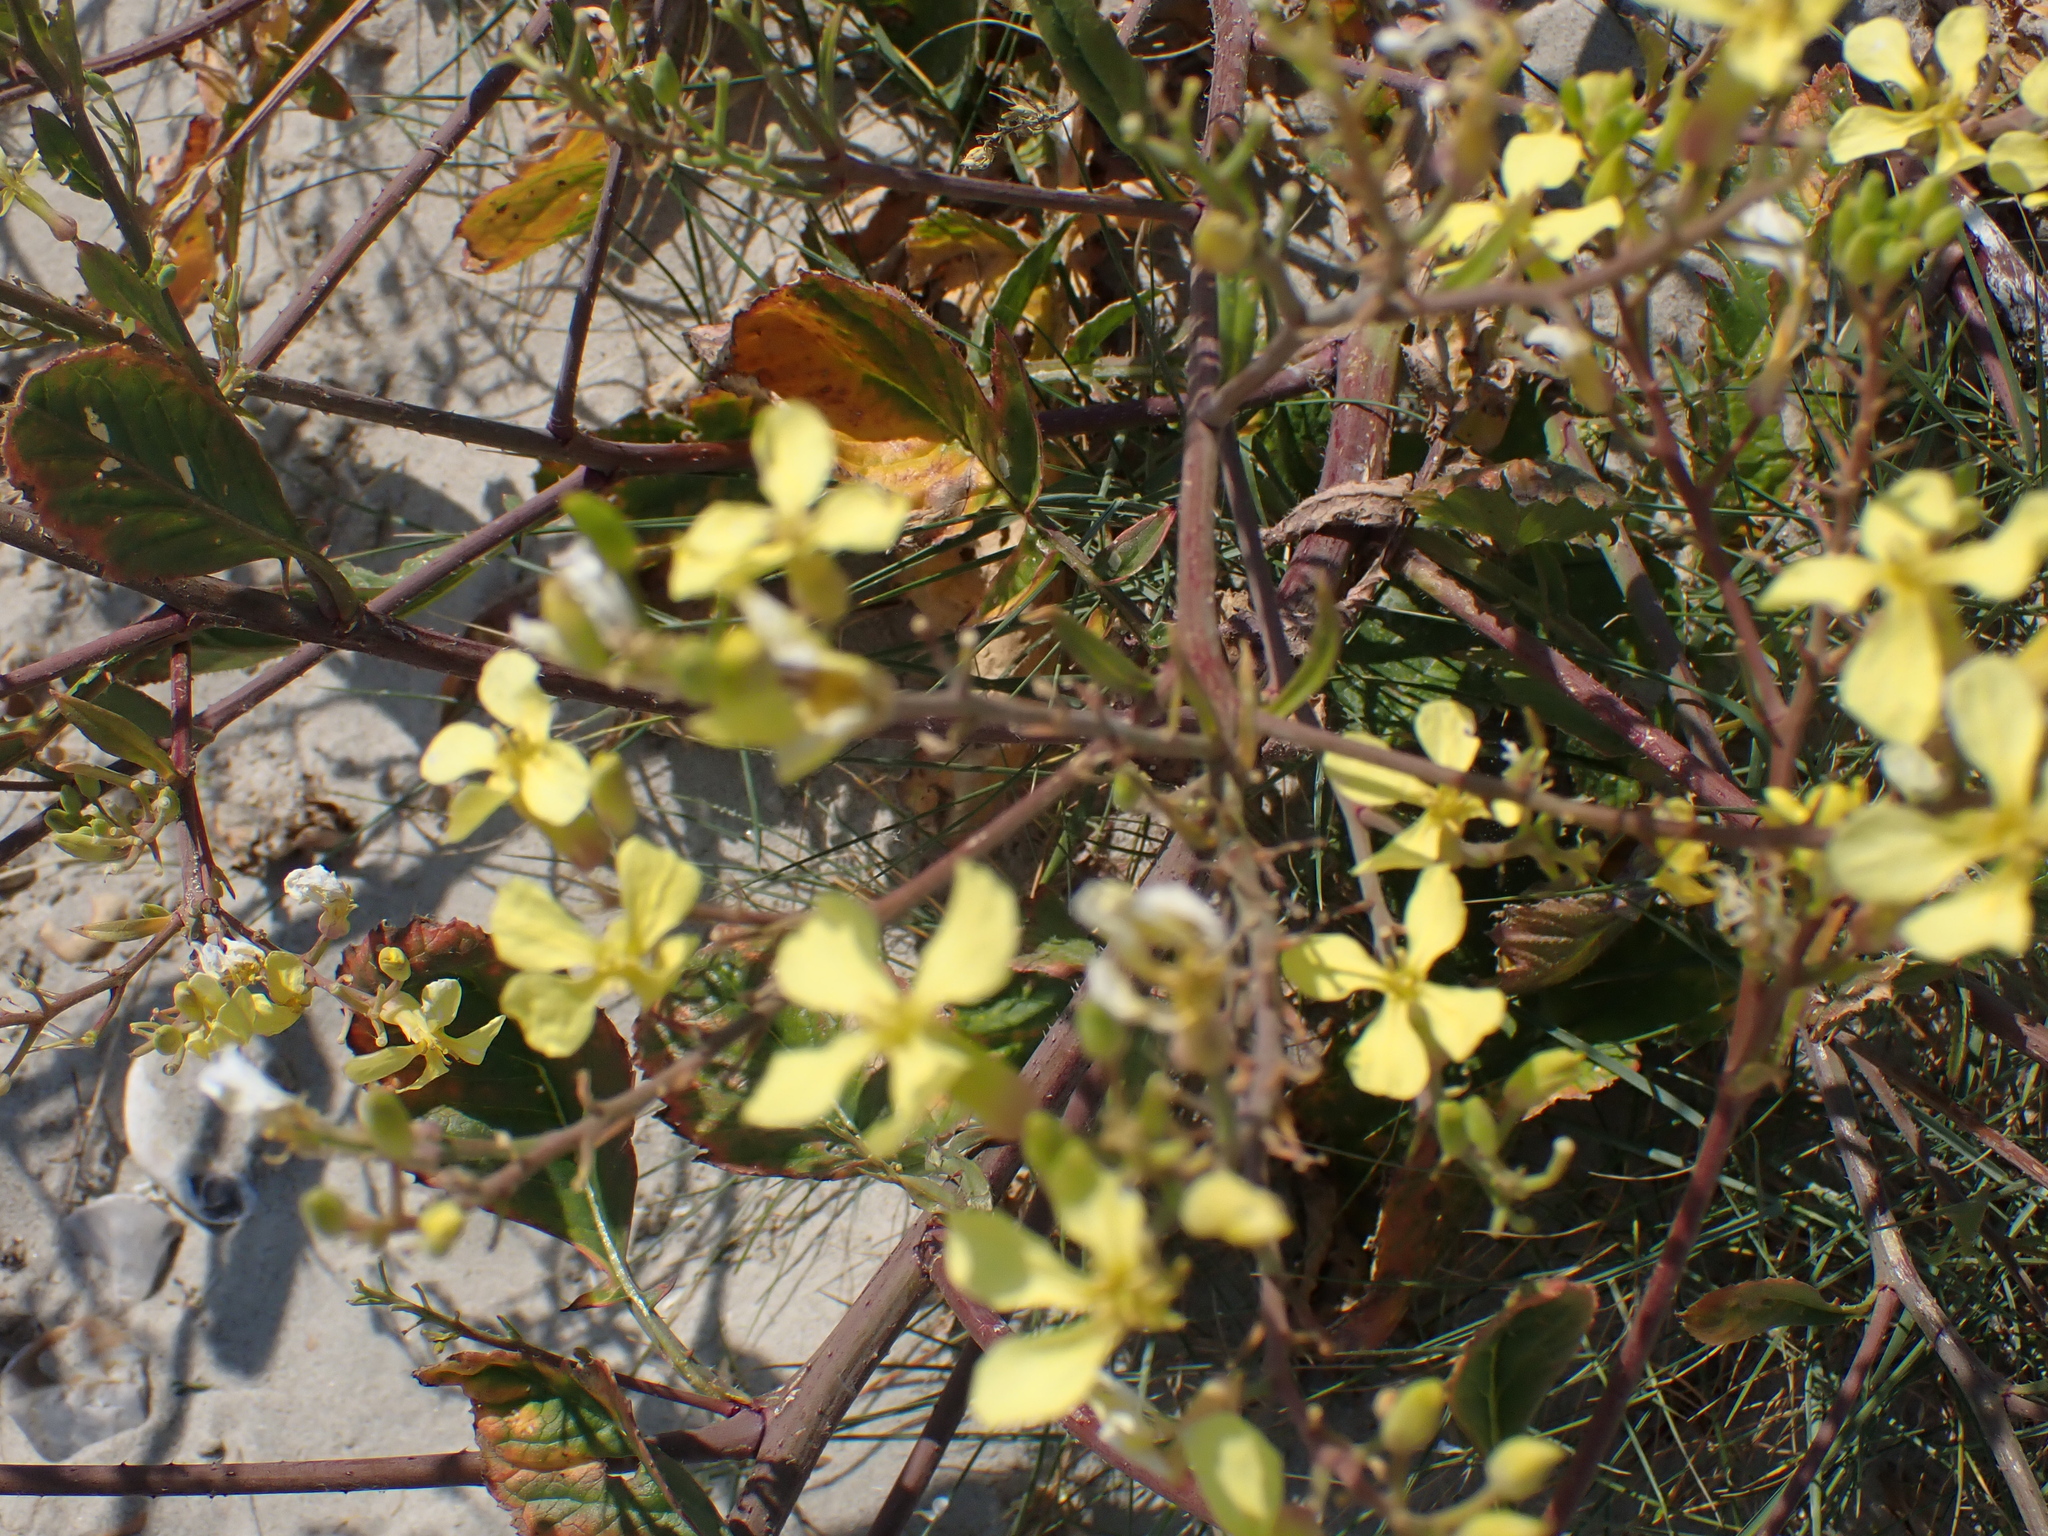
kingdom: Plantae
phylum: Tracheophyta
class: Magnoliopsida
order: Brassicales
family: Brassicaceae
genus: Raphanus
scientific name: Raphanus raphanistrum
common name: Wild radish
